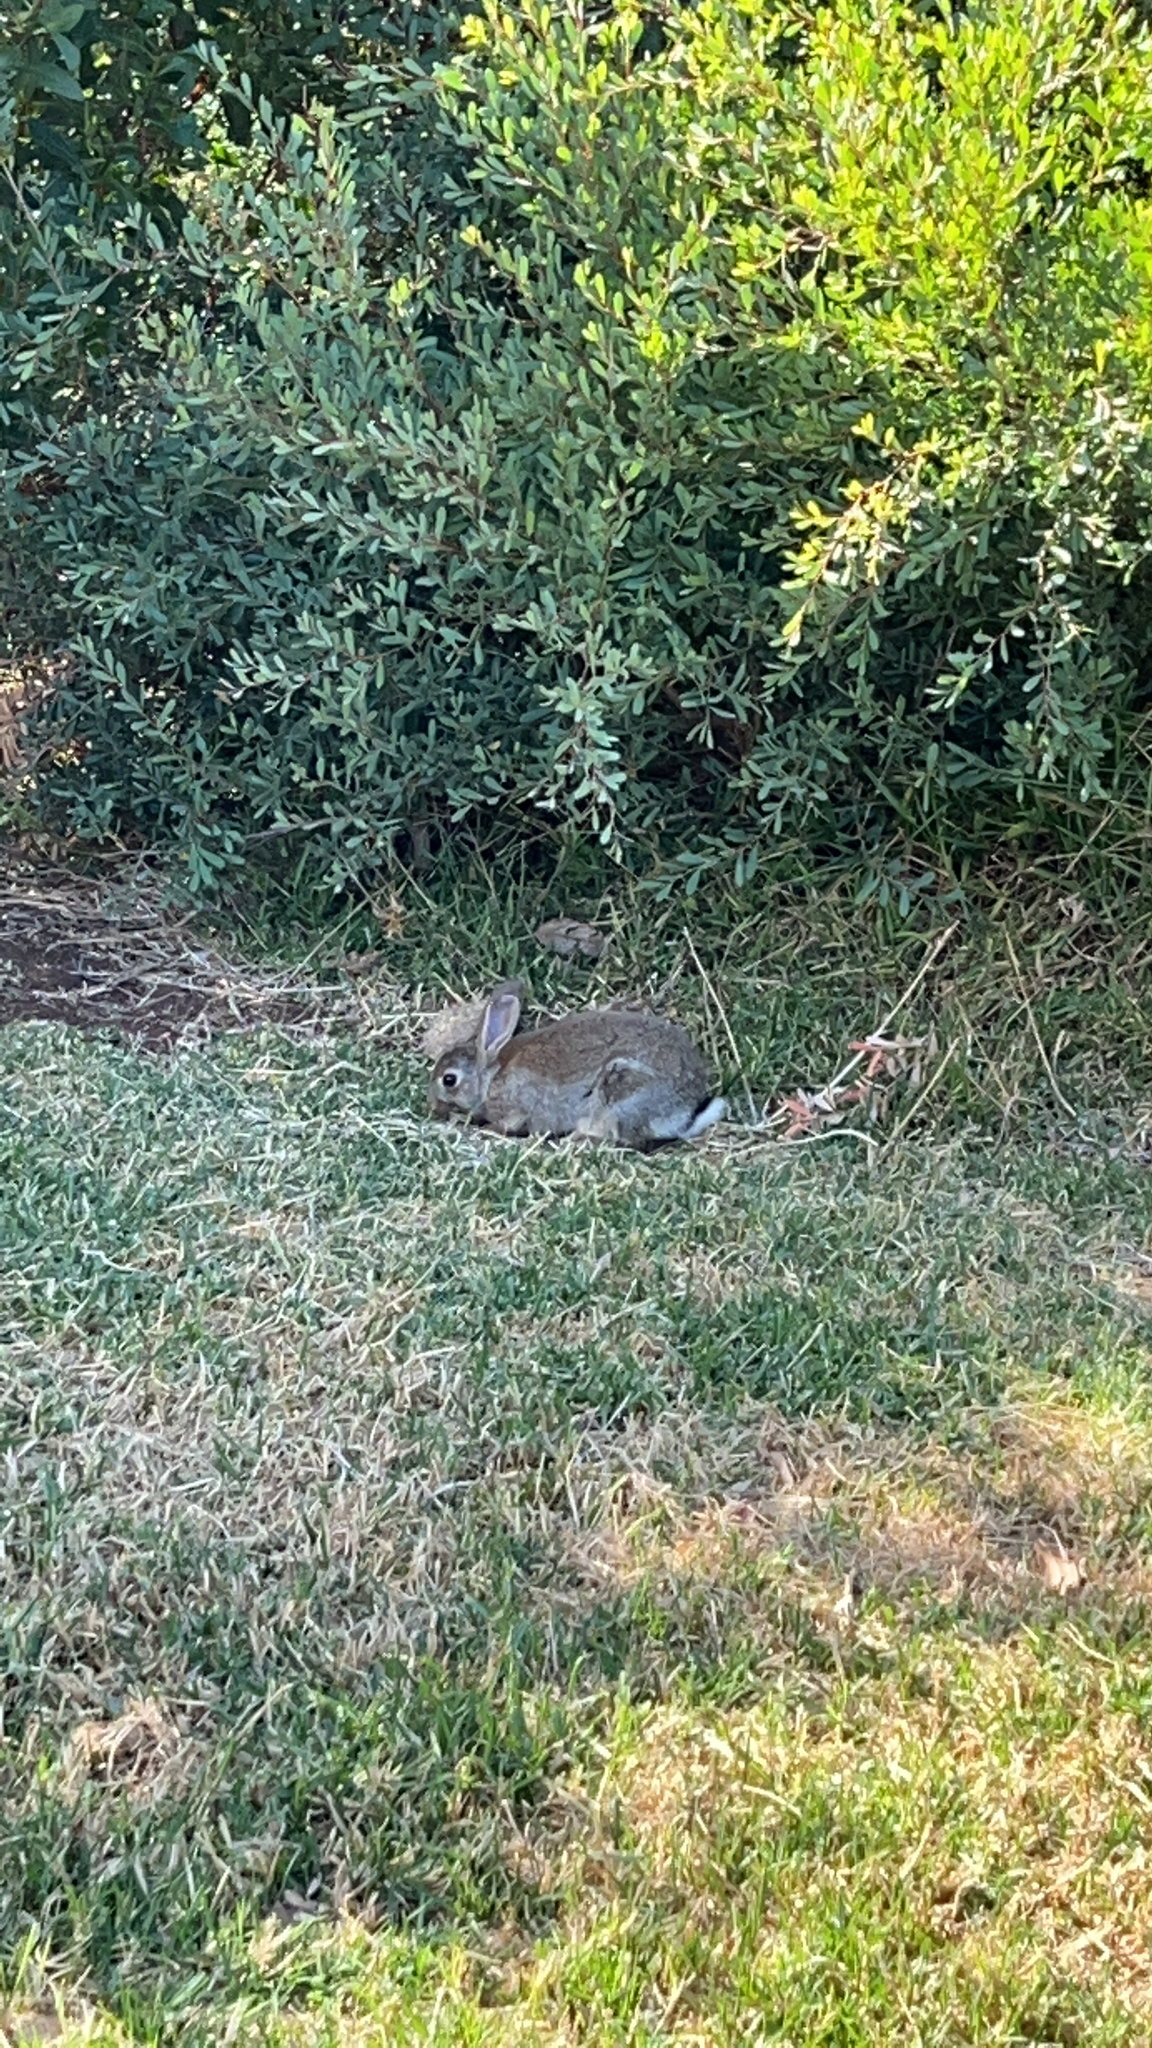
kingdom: Animalia
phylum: Chordata
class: Mammalia
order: Lagomorpha
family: Leporidae
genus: Oryctolagus
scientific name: Oryctolagus cuniculus
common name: European rabbit
